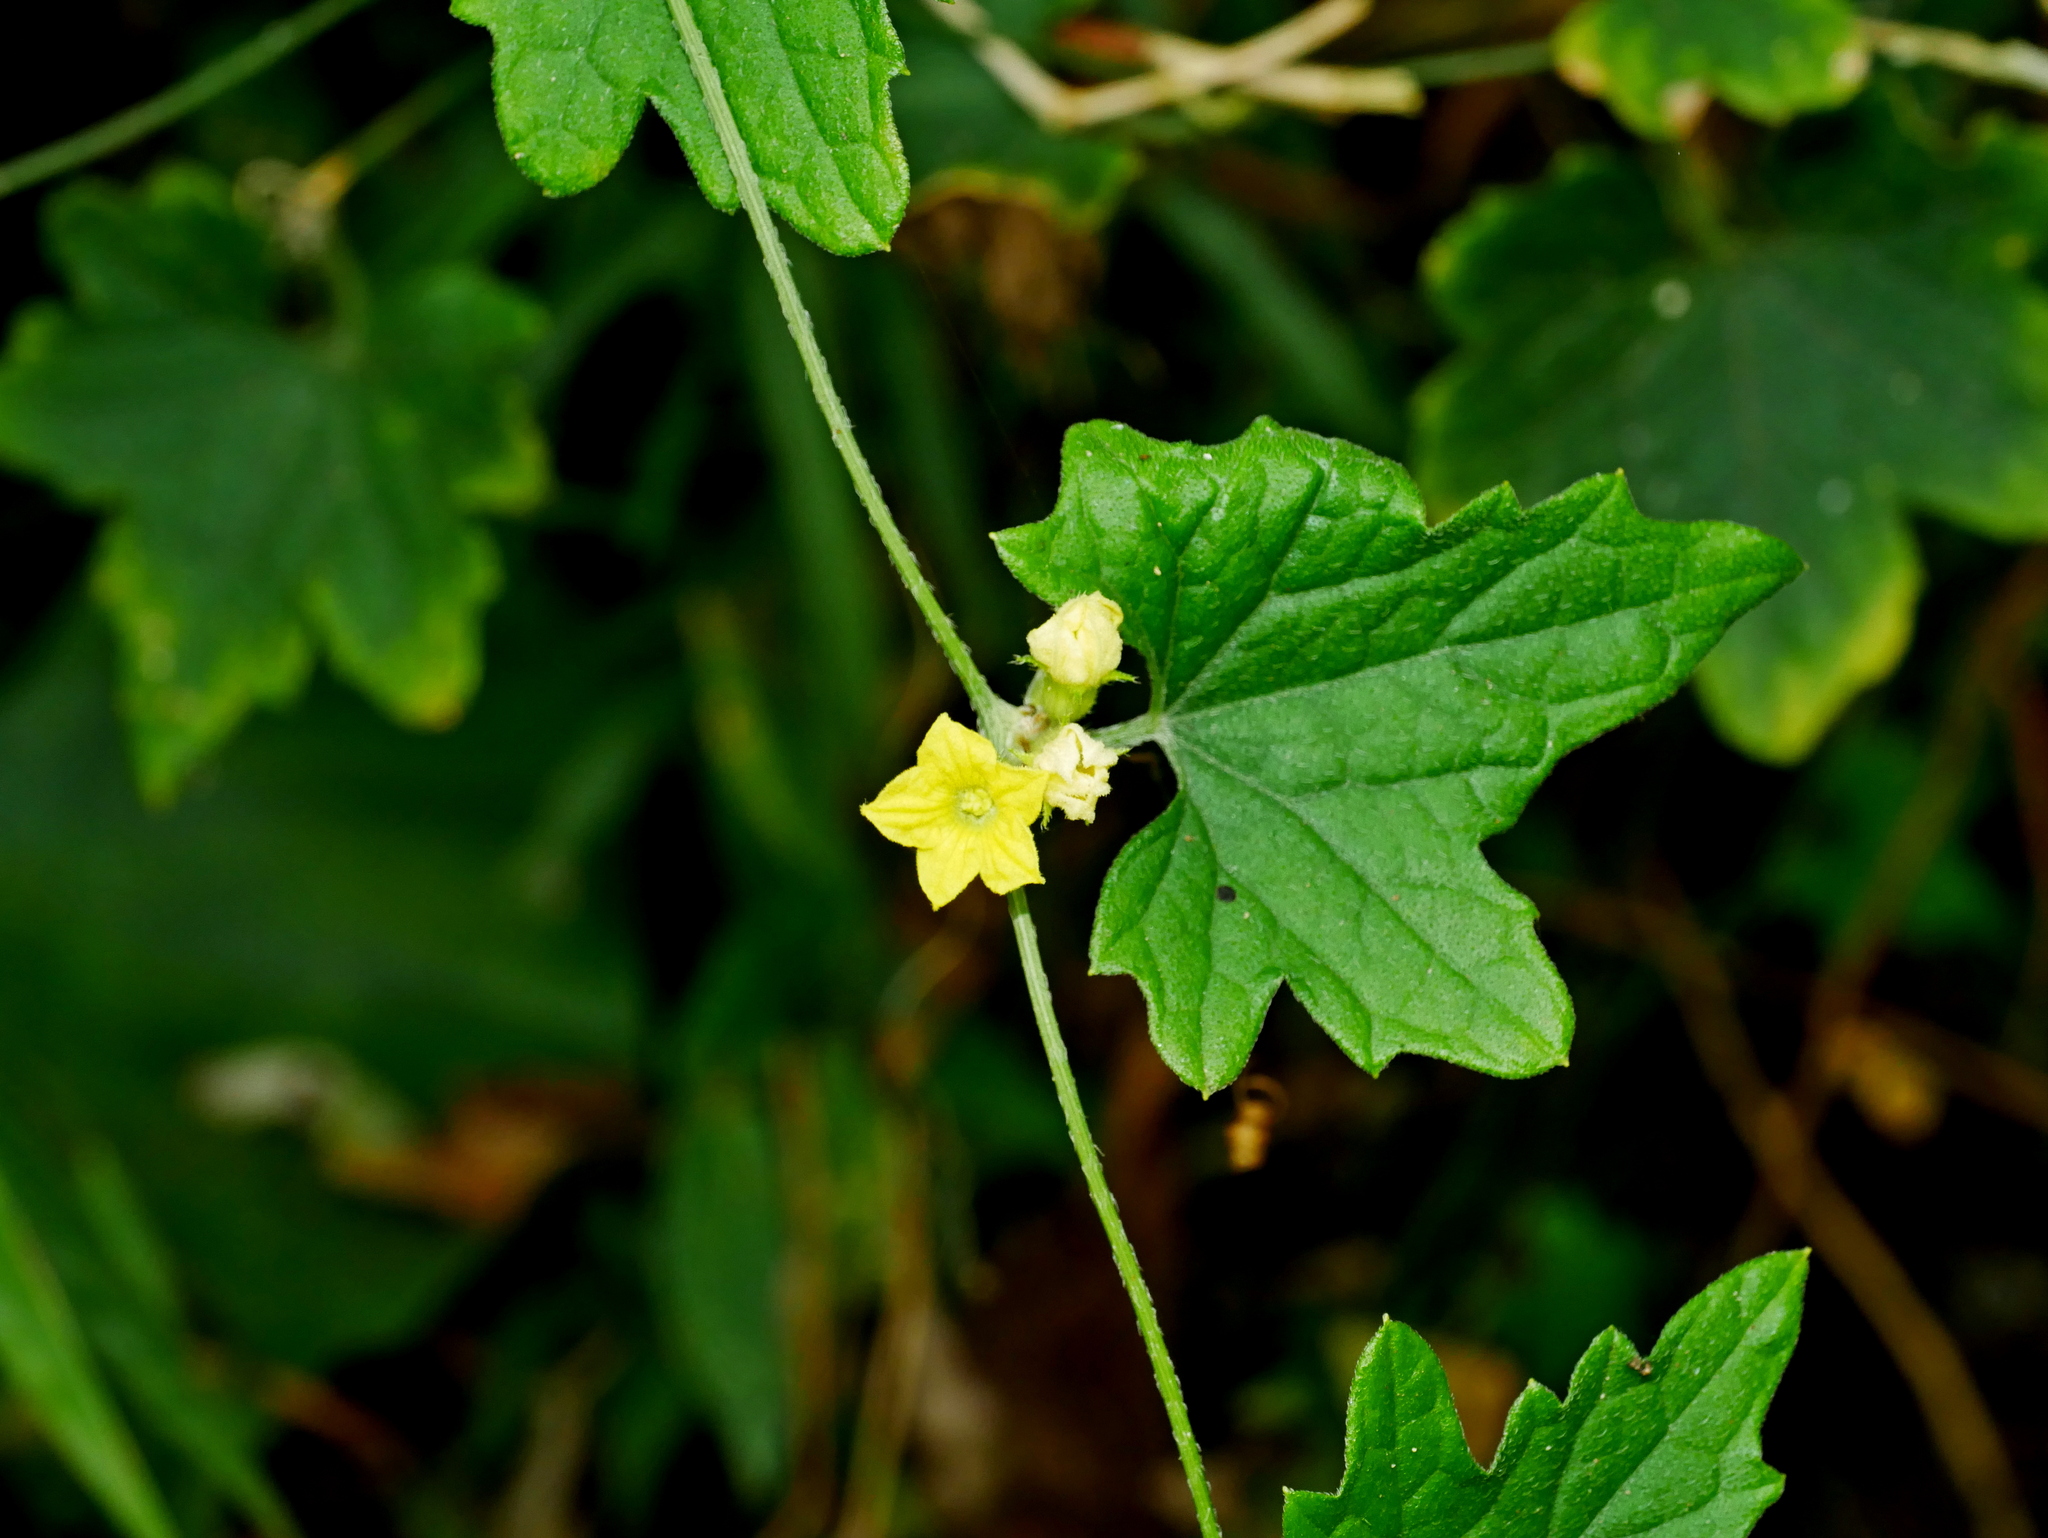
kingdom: Plantae
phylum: Tracheophyta
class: Magnoliopsida
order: Cucurbitales
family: Cucurbitaceae
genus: Cucumis
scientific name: Cucumis maderaspatanus
